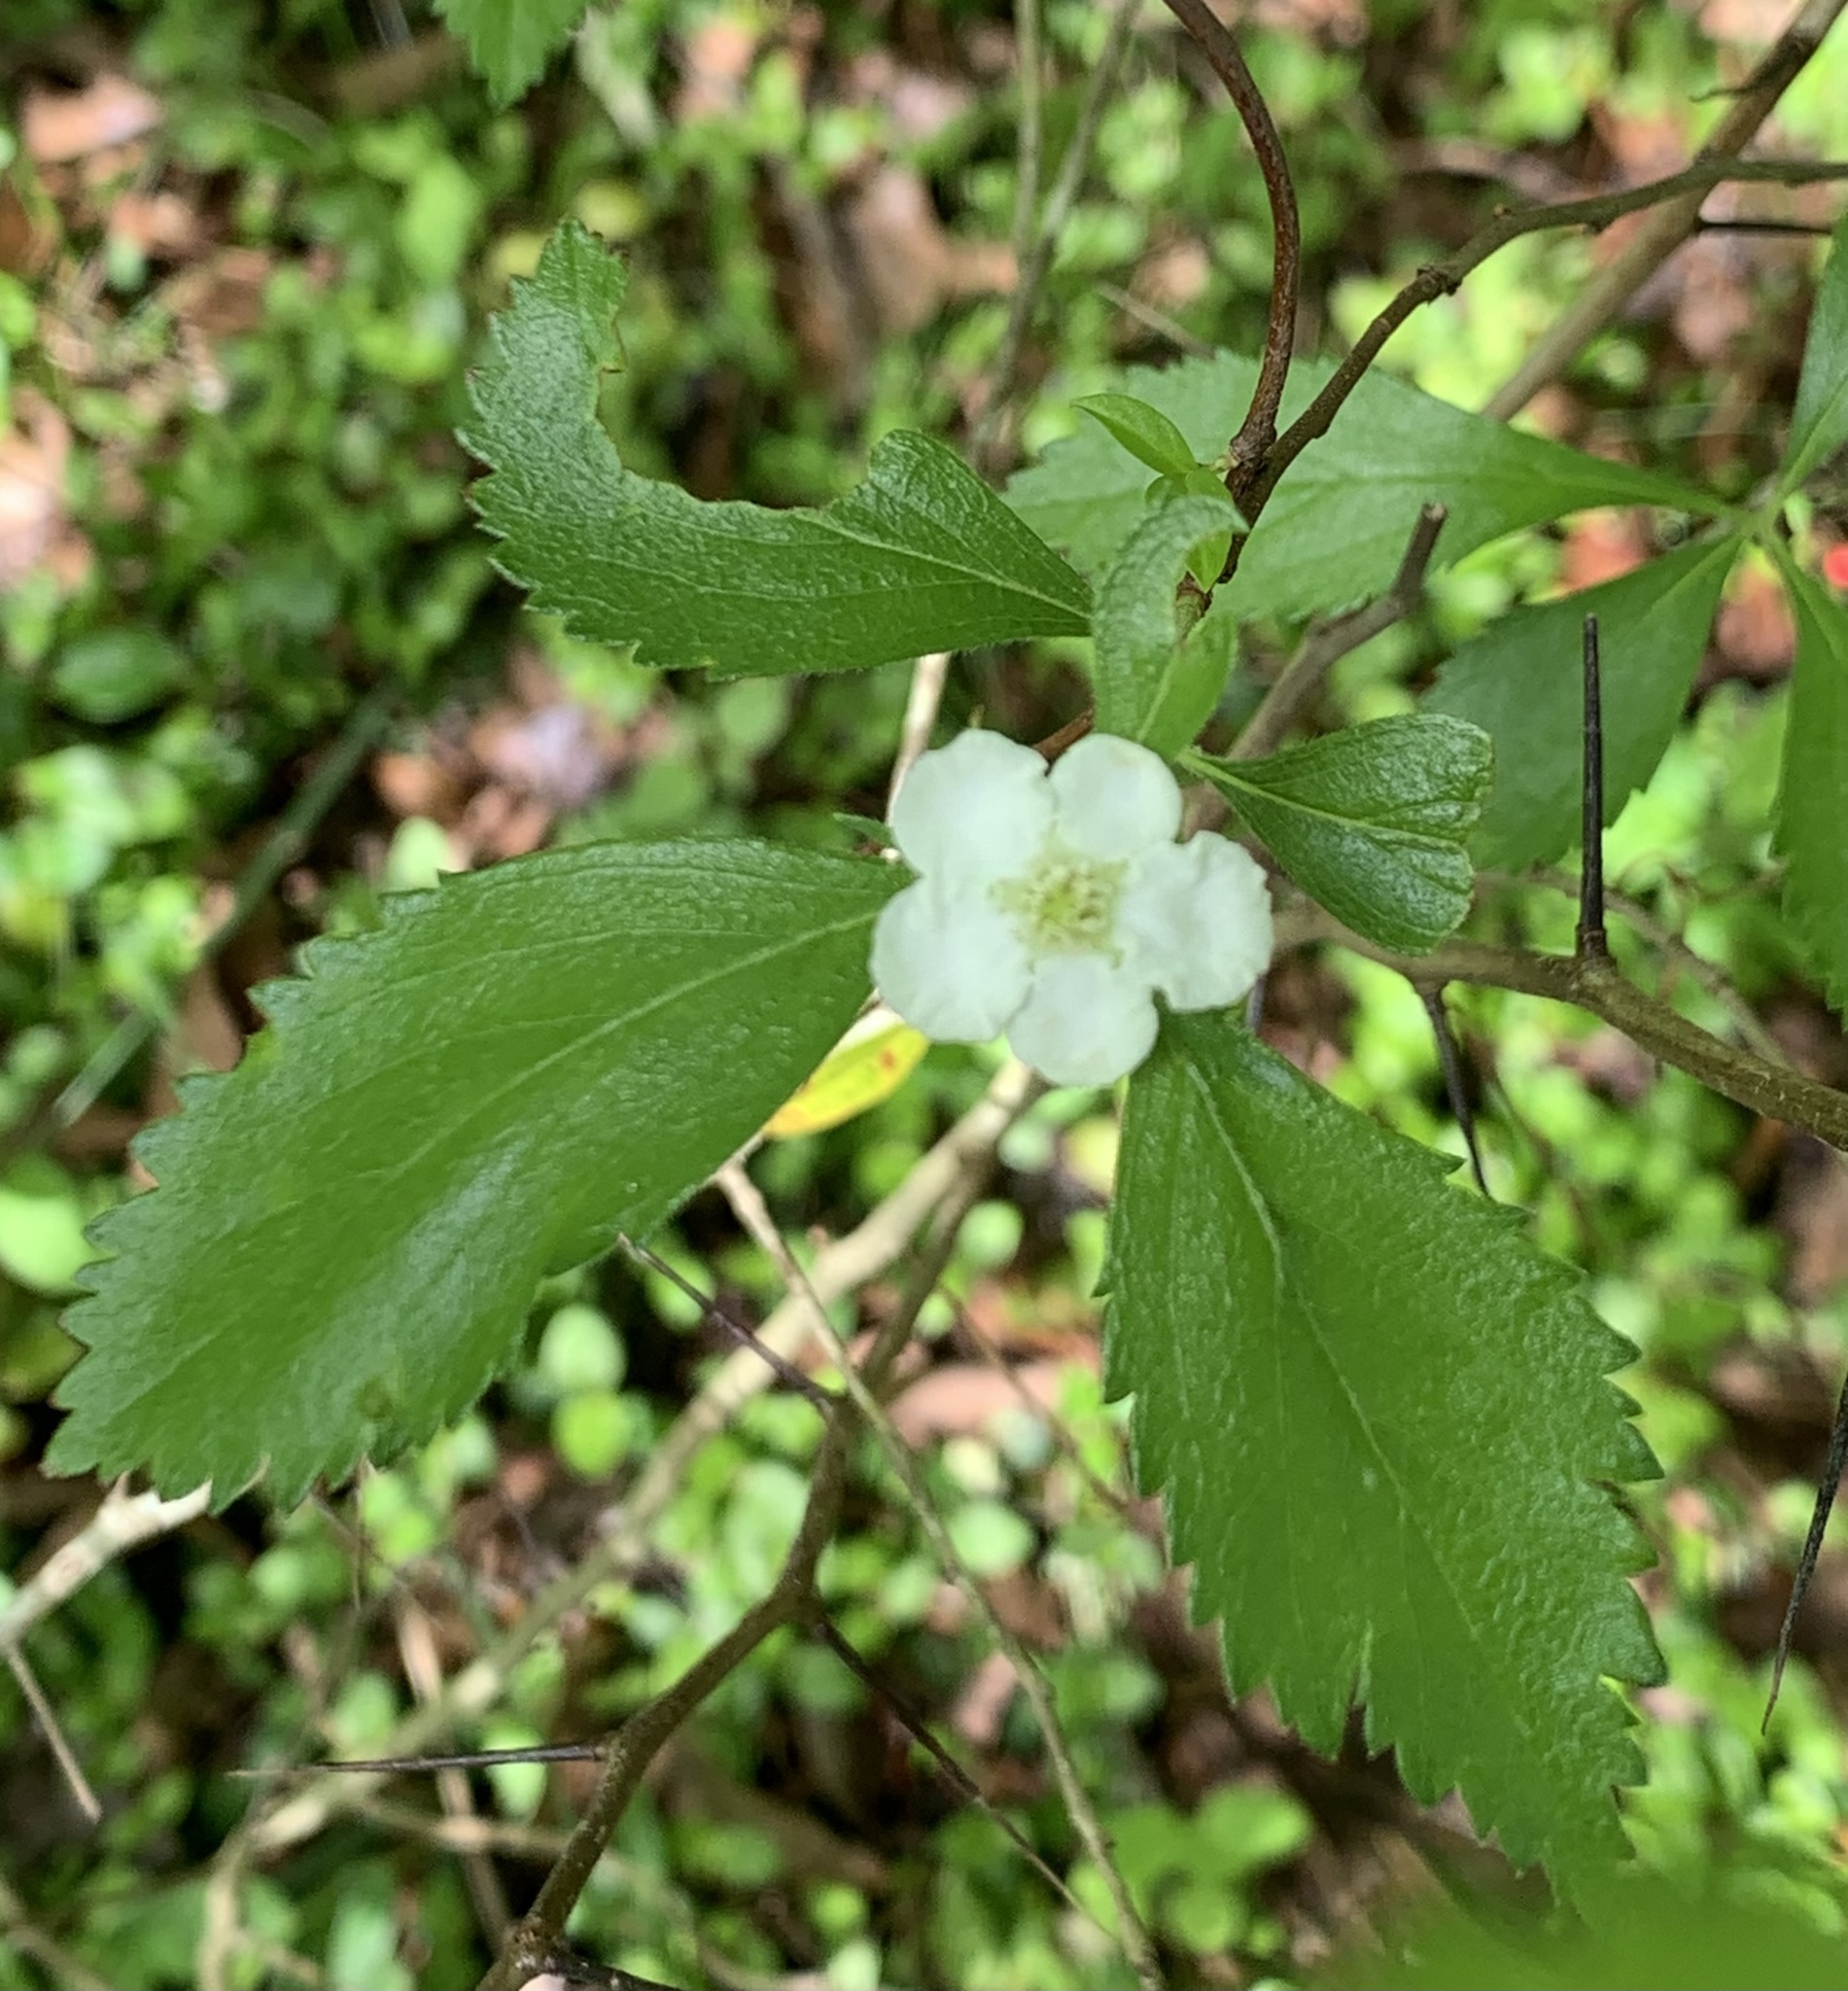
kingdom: Plantae
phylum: Tracheophyta
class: Magnoliopsida
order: Rosales
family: Rosaceae
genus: Crataegus
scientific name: Crataegus uniflora
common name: One-flower hawthorn
